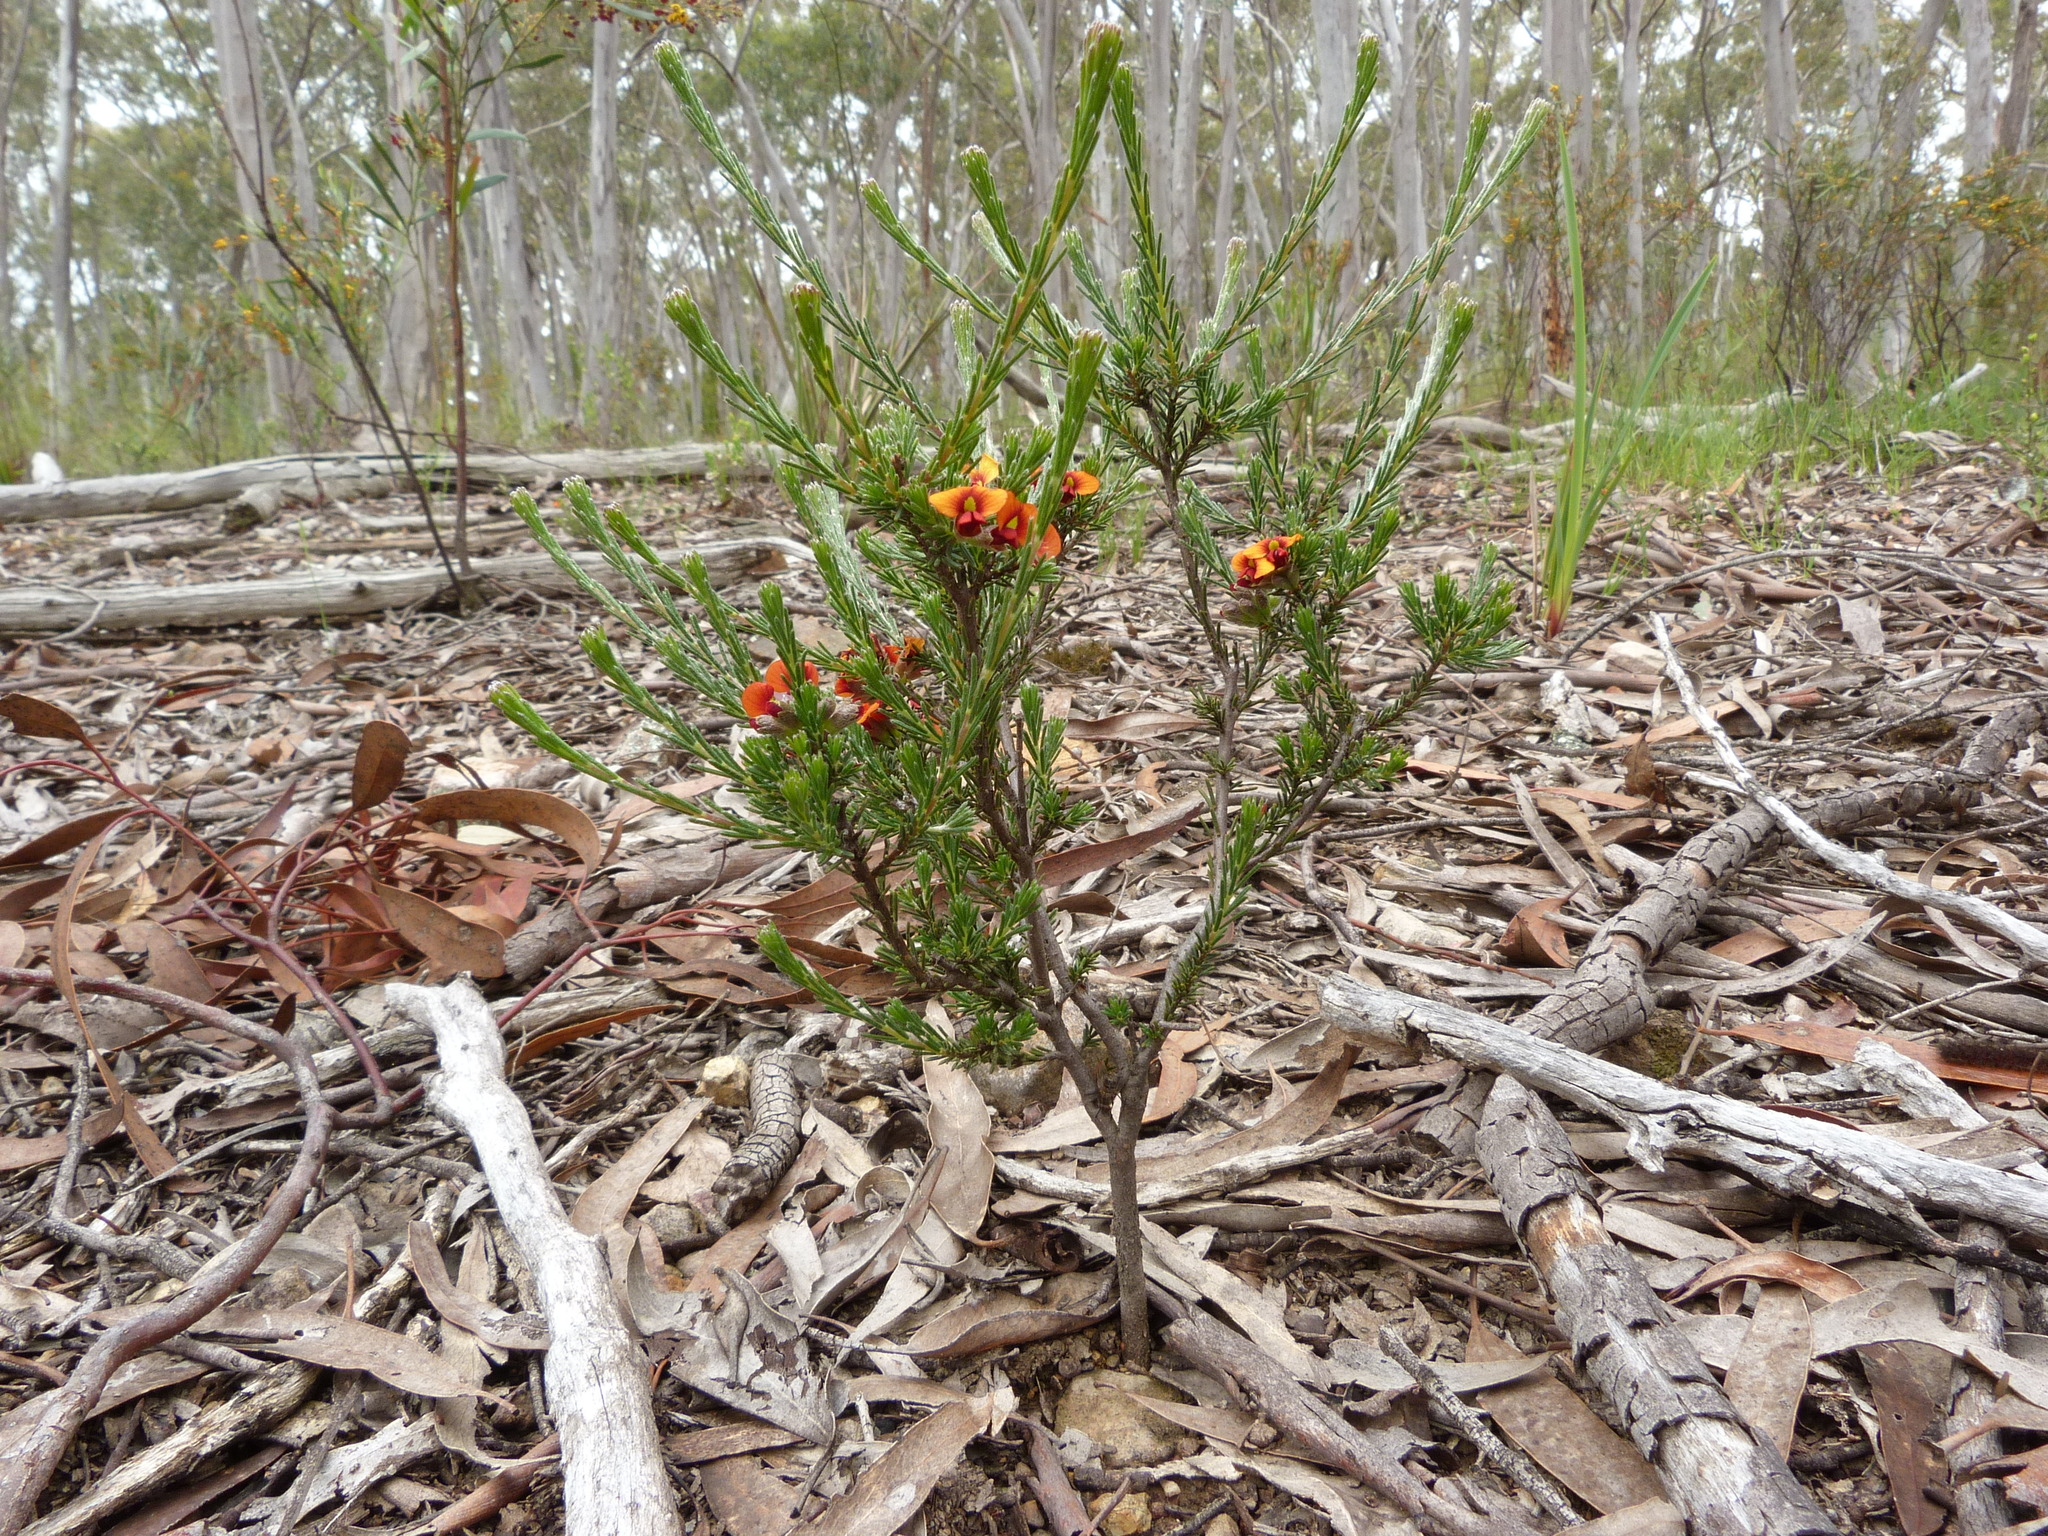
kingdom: Plantae
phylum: Tracheophyta
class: Magnoliopsida
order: Fabales
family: Fabaceae
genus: Dillwynia
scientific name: Dillwynia sericea
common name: Showy parrot-pea
